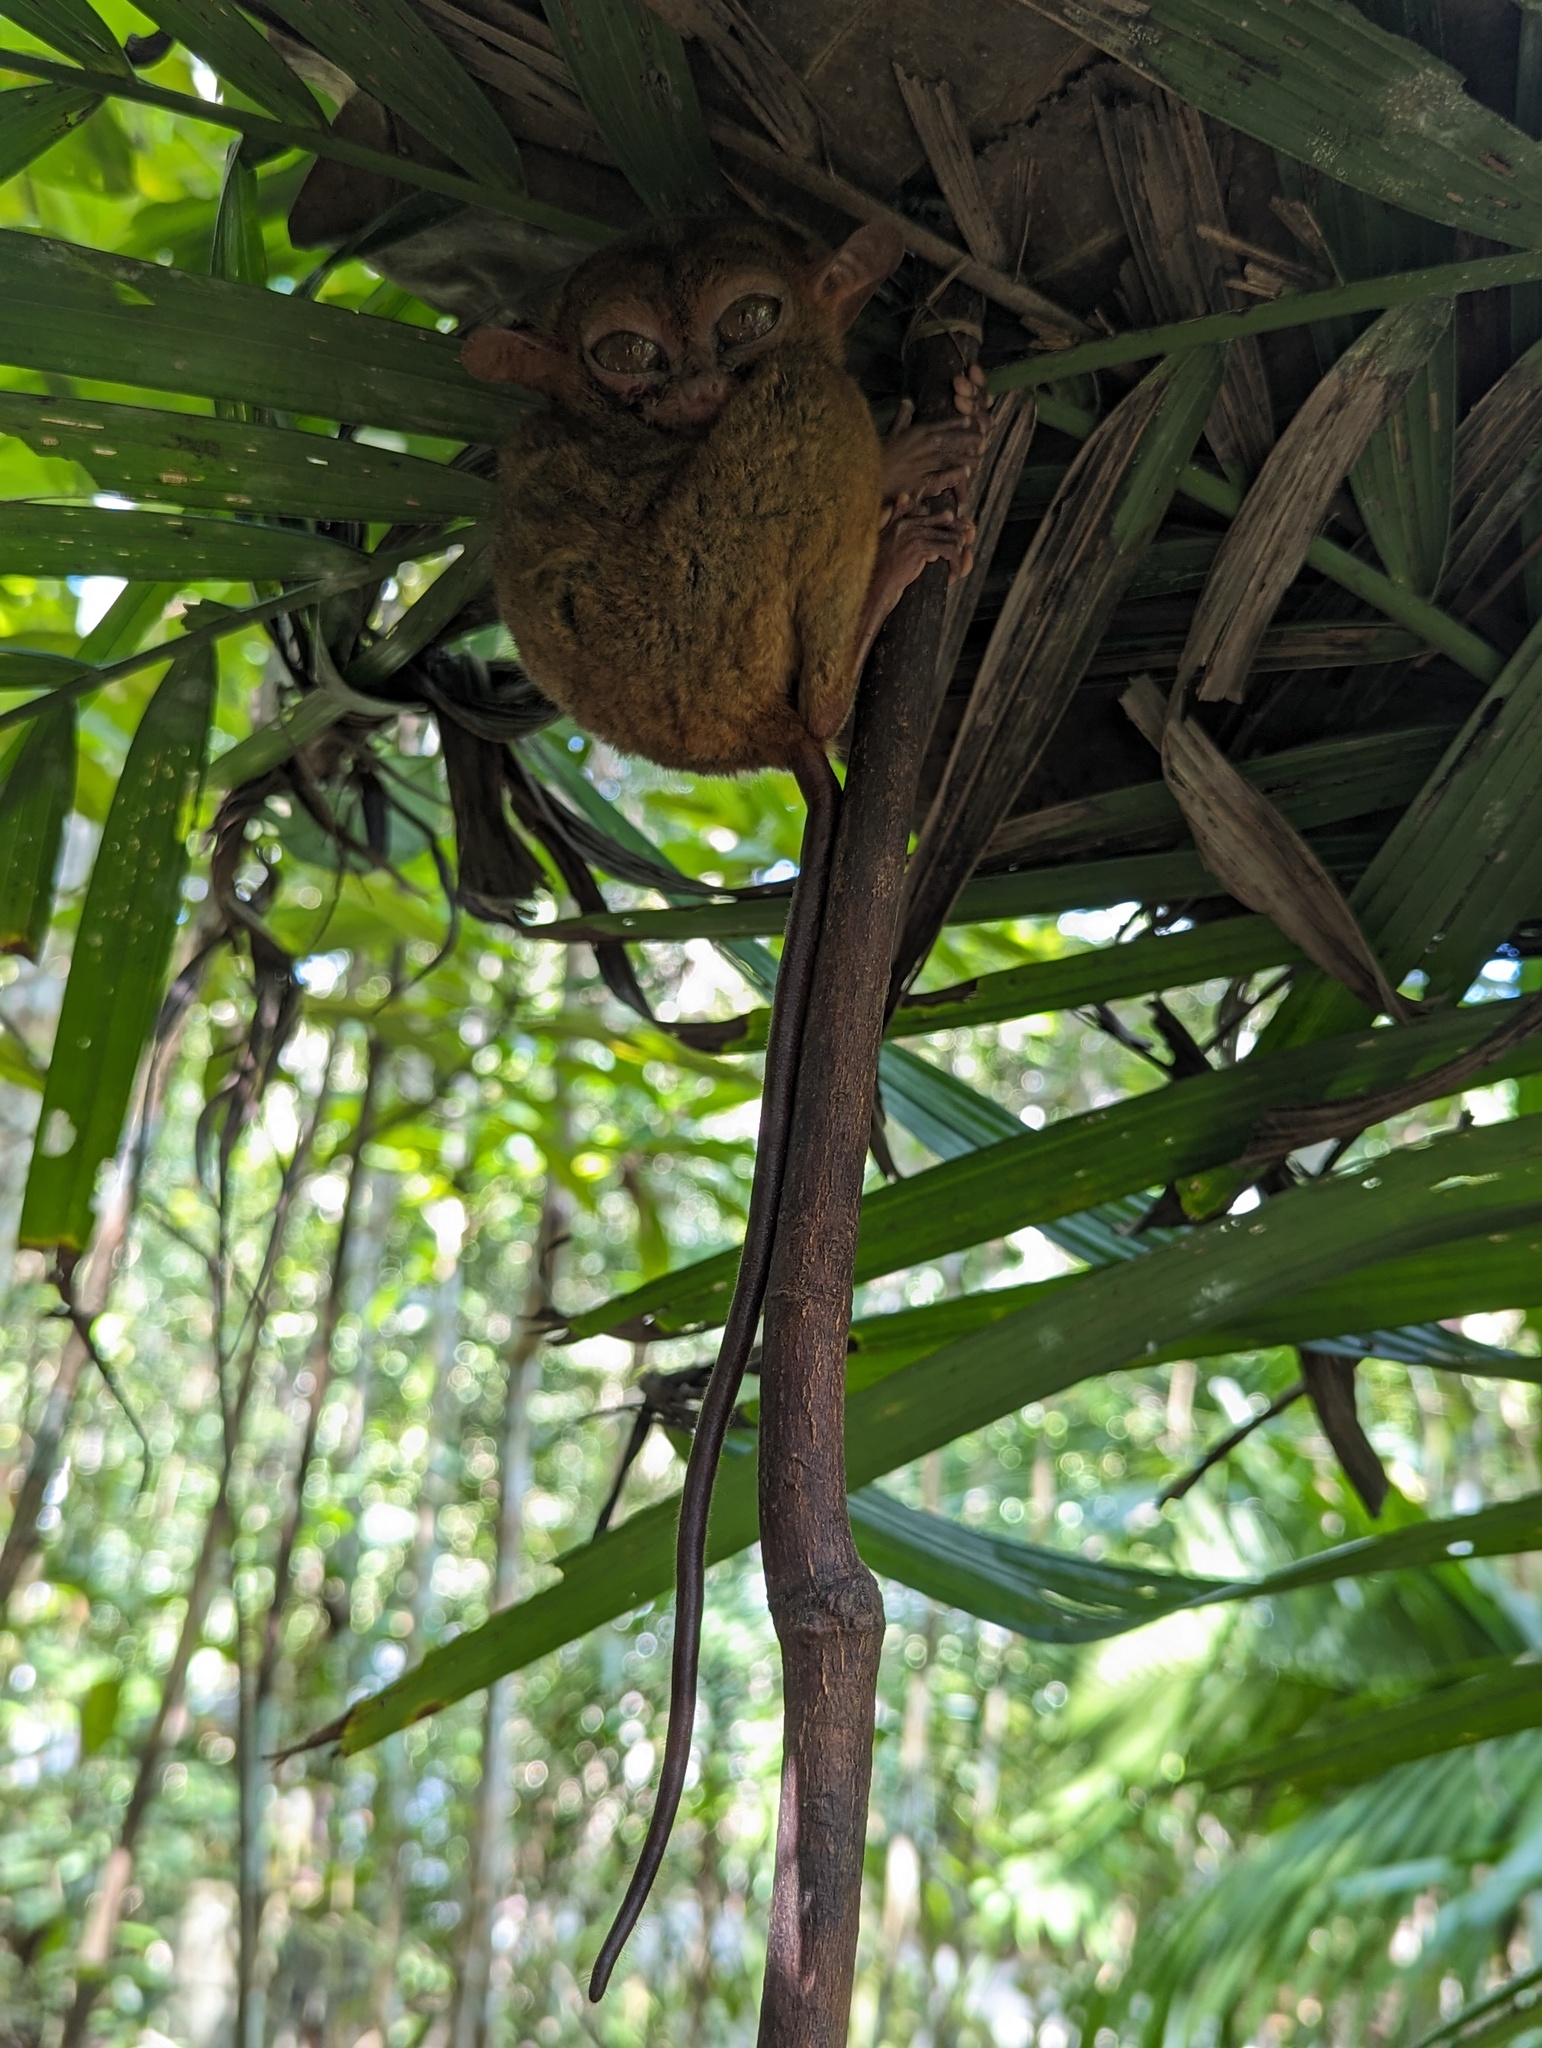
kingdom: Animalia
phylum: Chordata
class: Mammalia
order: Primates
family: Tarsiidae
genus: Carlito
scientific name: Carlito syrichta
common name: Philippine tarsier
